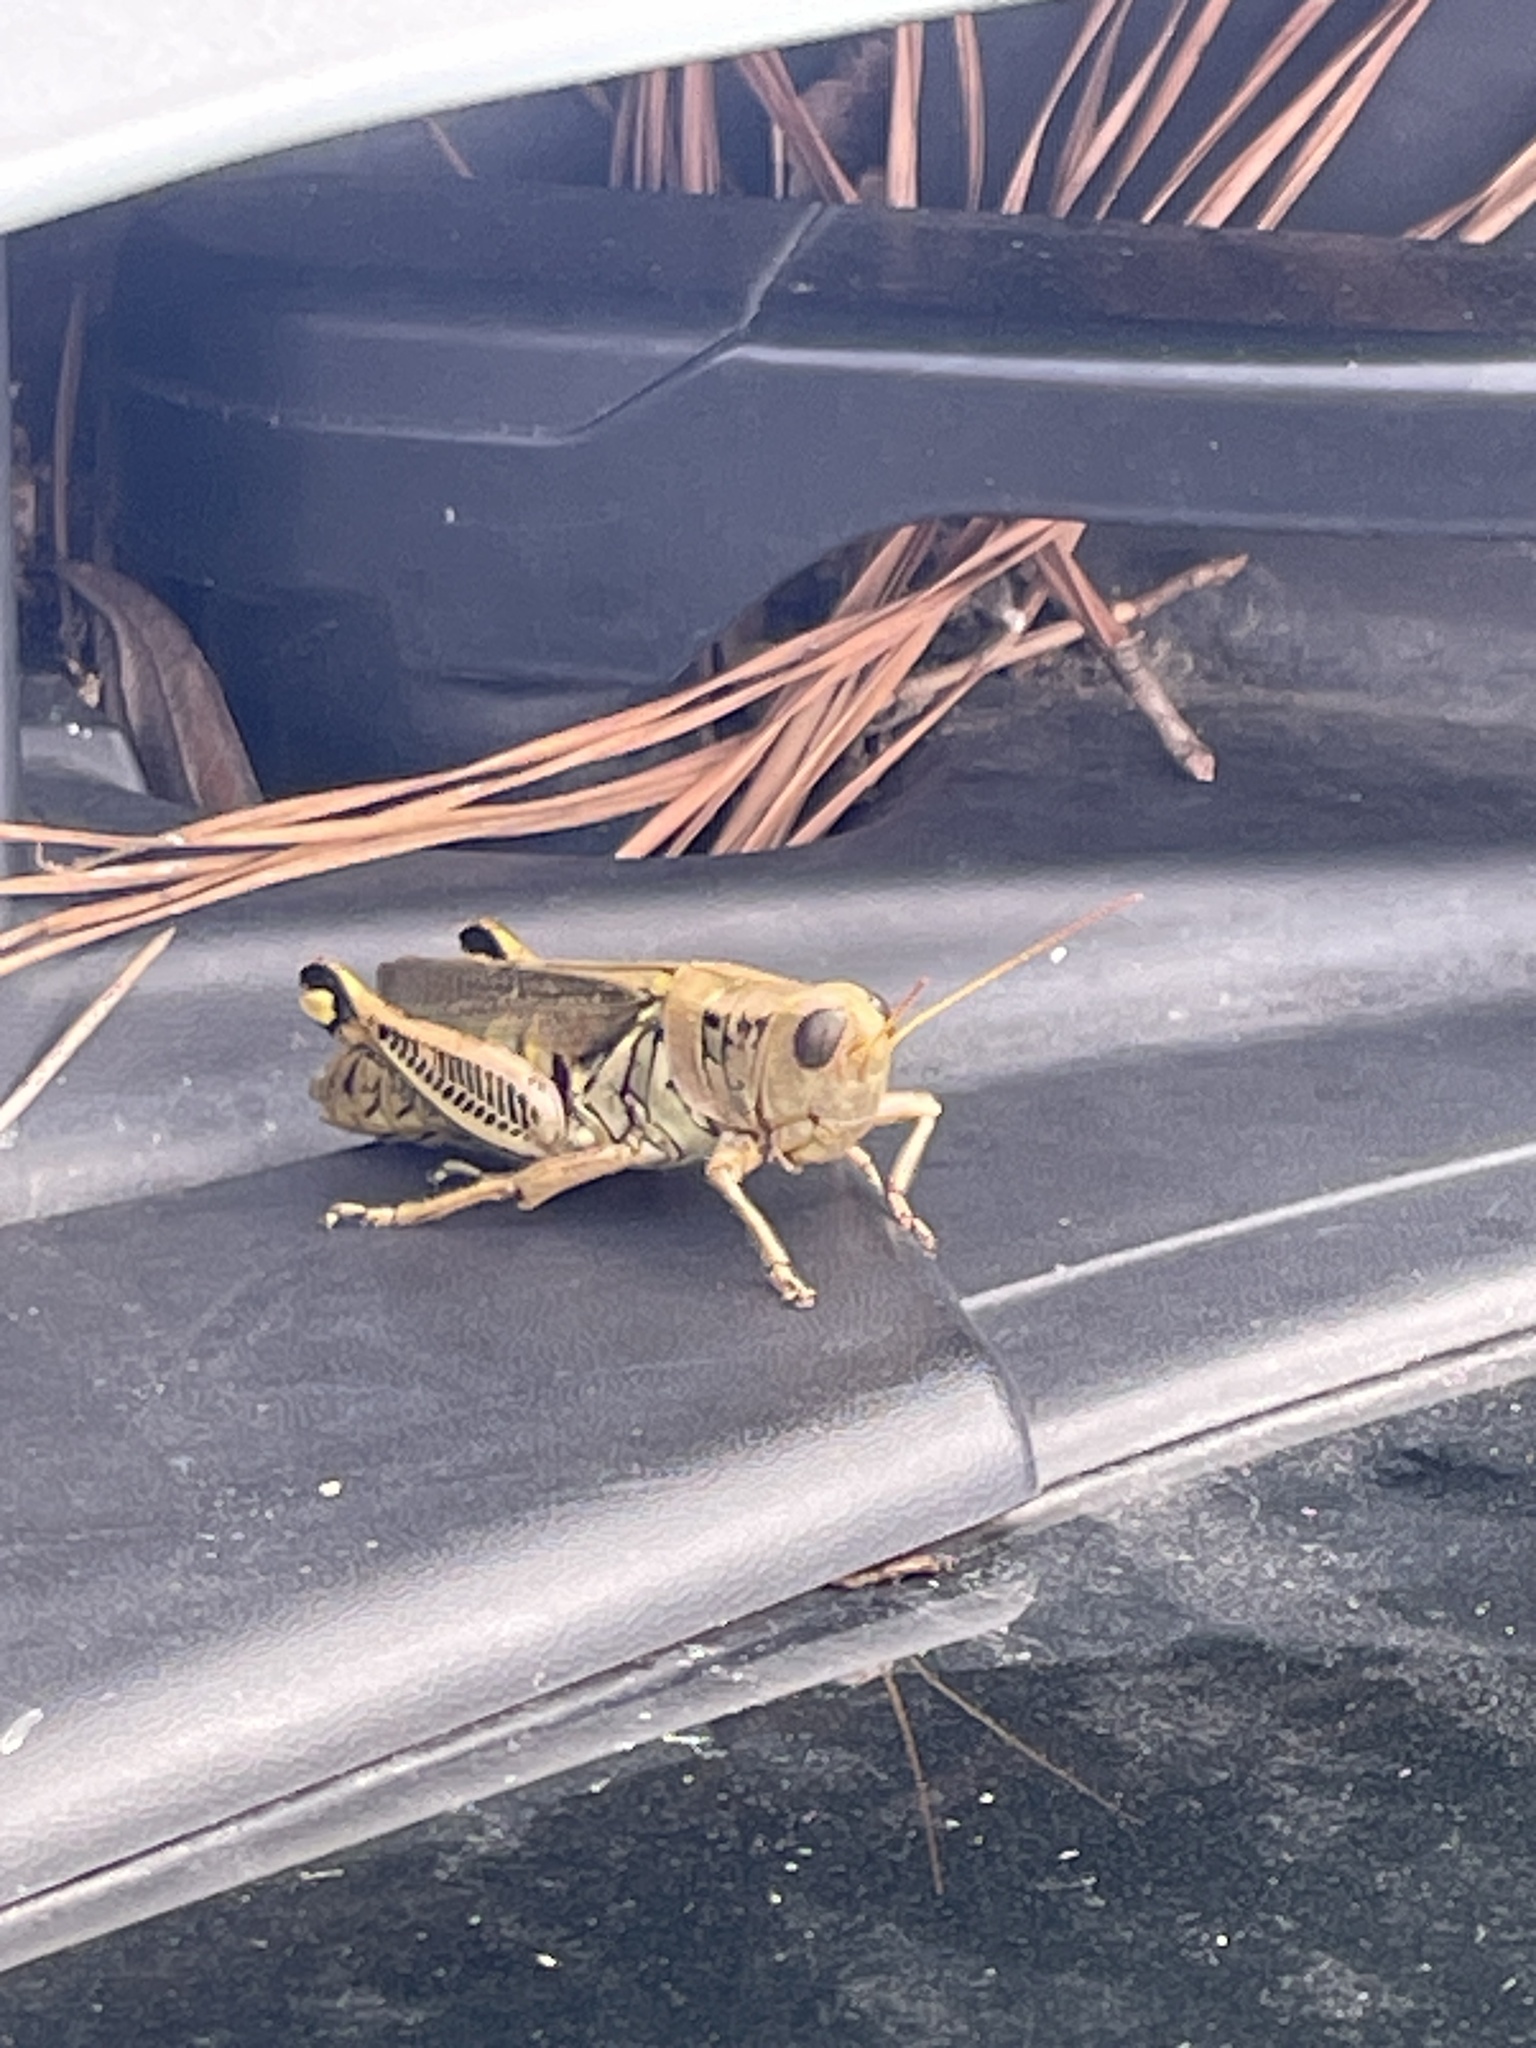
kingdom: Animalia
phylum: Arthropoda
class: Insecta
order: Orthoptera
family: Acrididae
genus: Melanoplus
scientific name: Melanoplus differentialis
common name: Differential grasshopper
